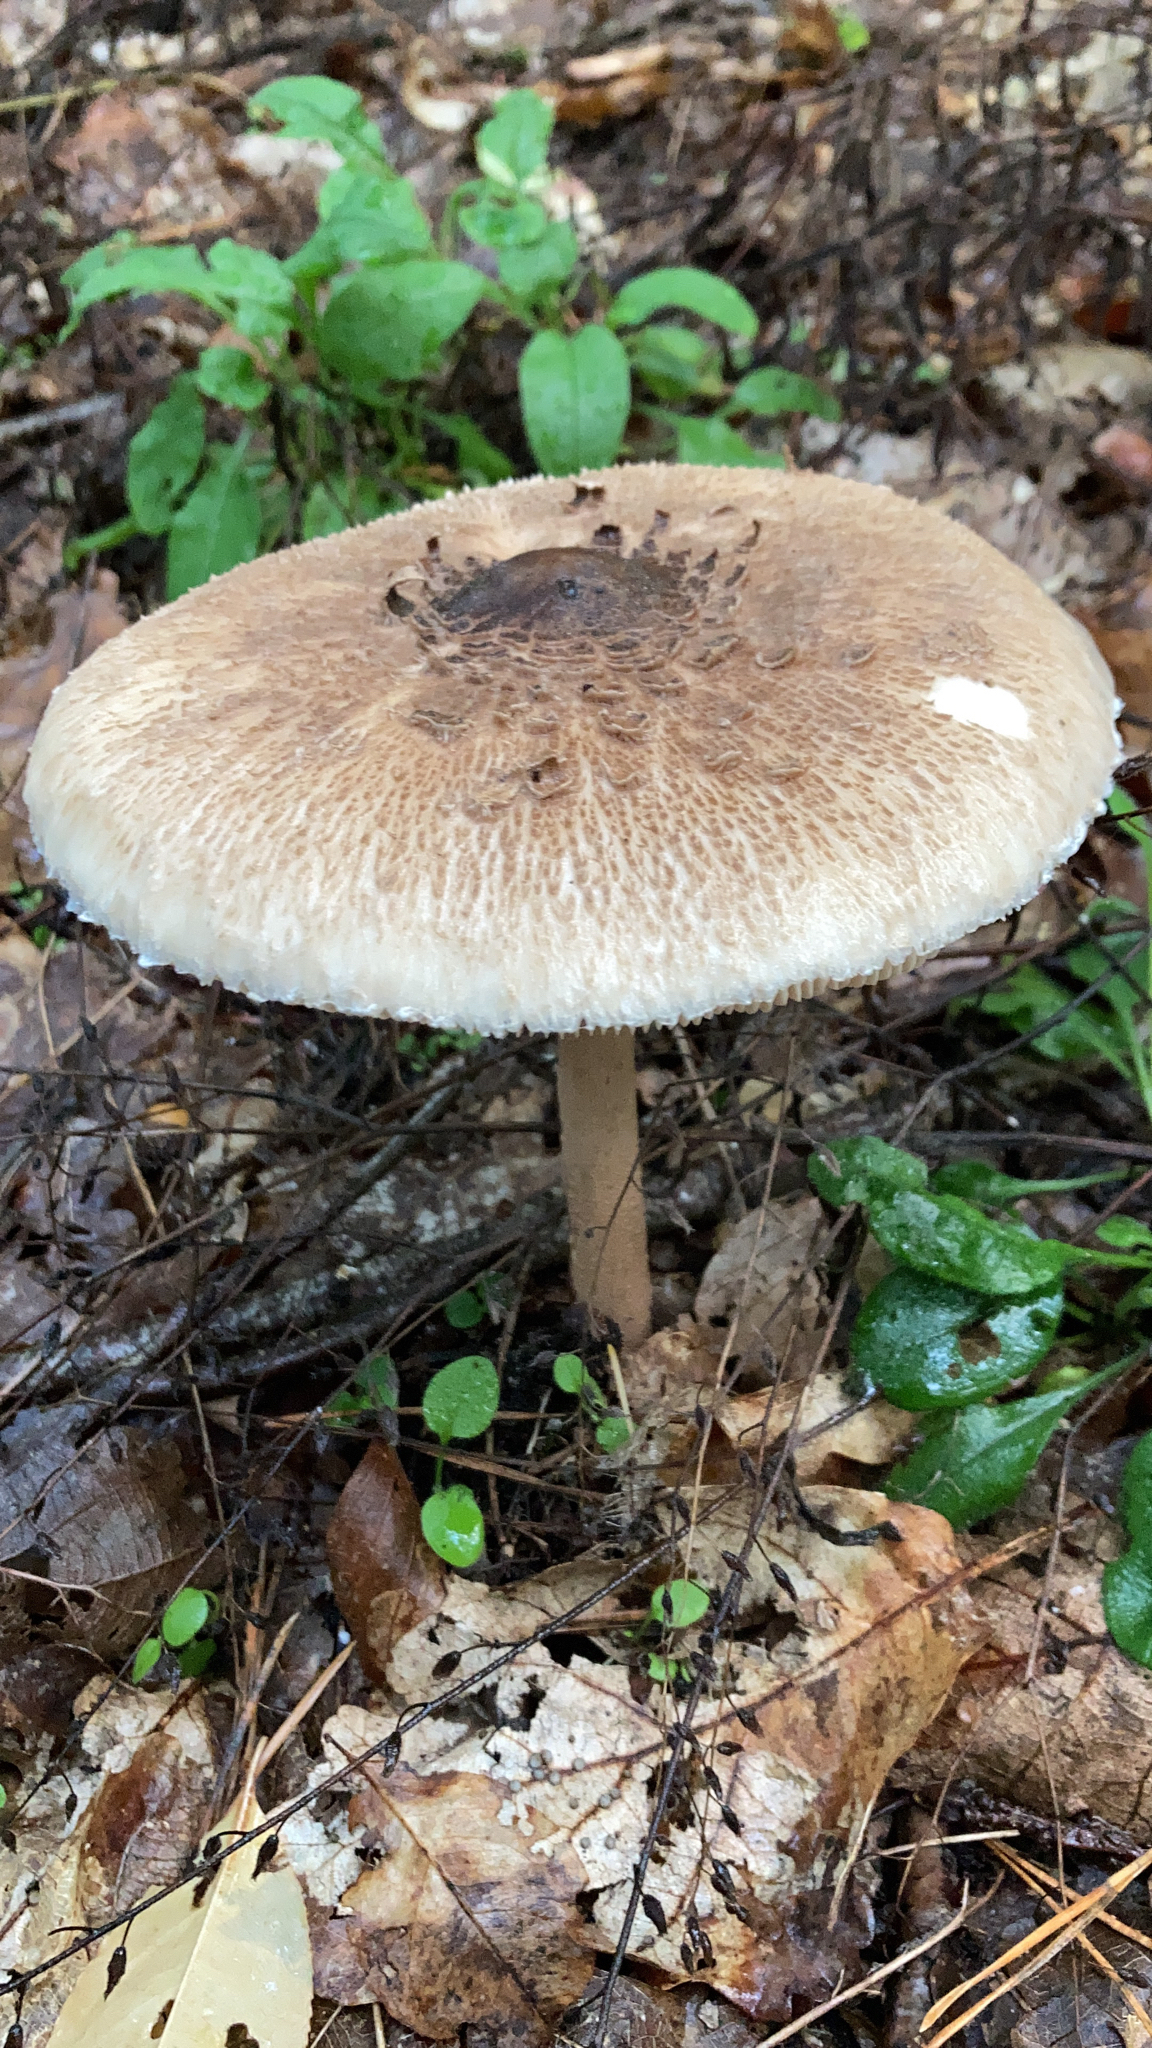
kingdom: Fungi
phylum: Basidiomycota
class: Agaricomycetes
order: Agaricales
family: Agaricaceae
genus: Macrolepiota
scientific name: Macrolepiota procera
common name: Parasol
